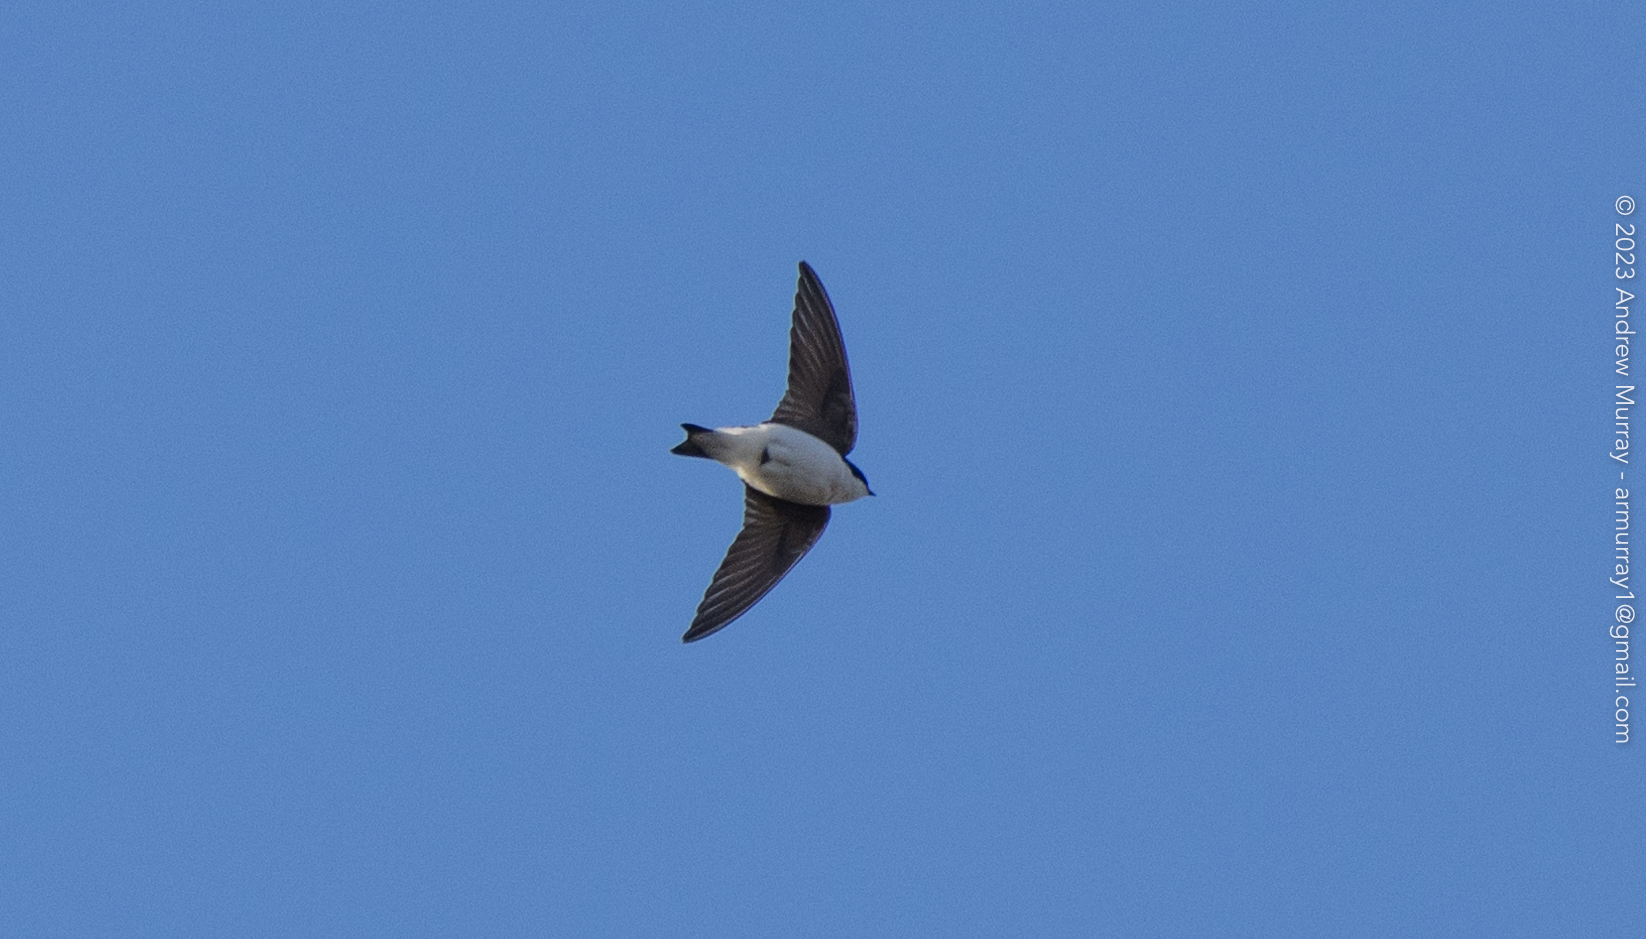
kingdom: Animalia
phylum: Chordata
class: Aves
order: Passeriformes
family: Hirundinidae
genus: Tachycineta
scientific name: Tachycineta bicolor
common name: Tree swallow
